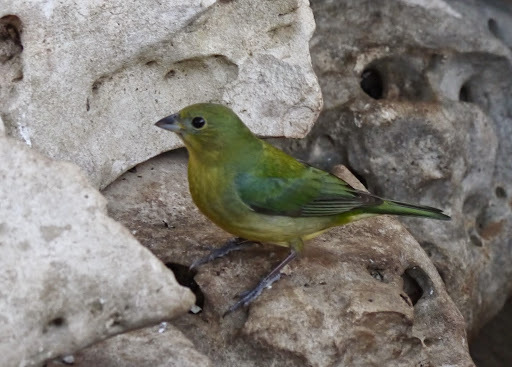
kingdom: Animalia
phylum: Chordata
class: Aves
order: Passeriformes
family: Cardinalidae
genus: Passerina
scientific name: Passerina ciris
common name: Painted bunting
